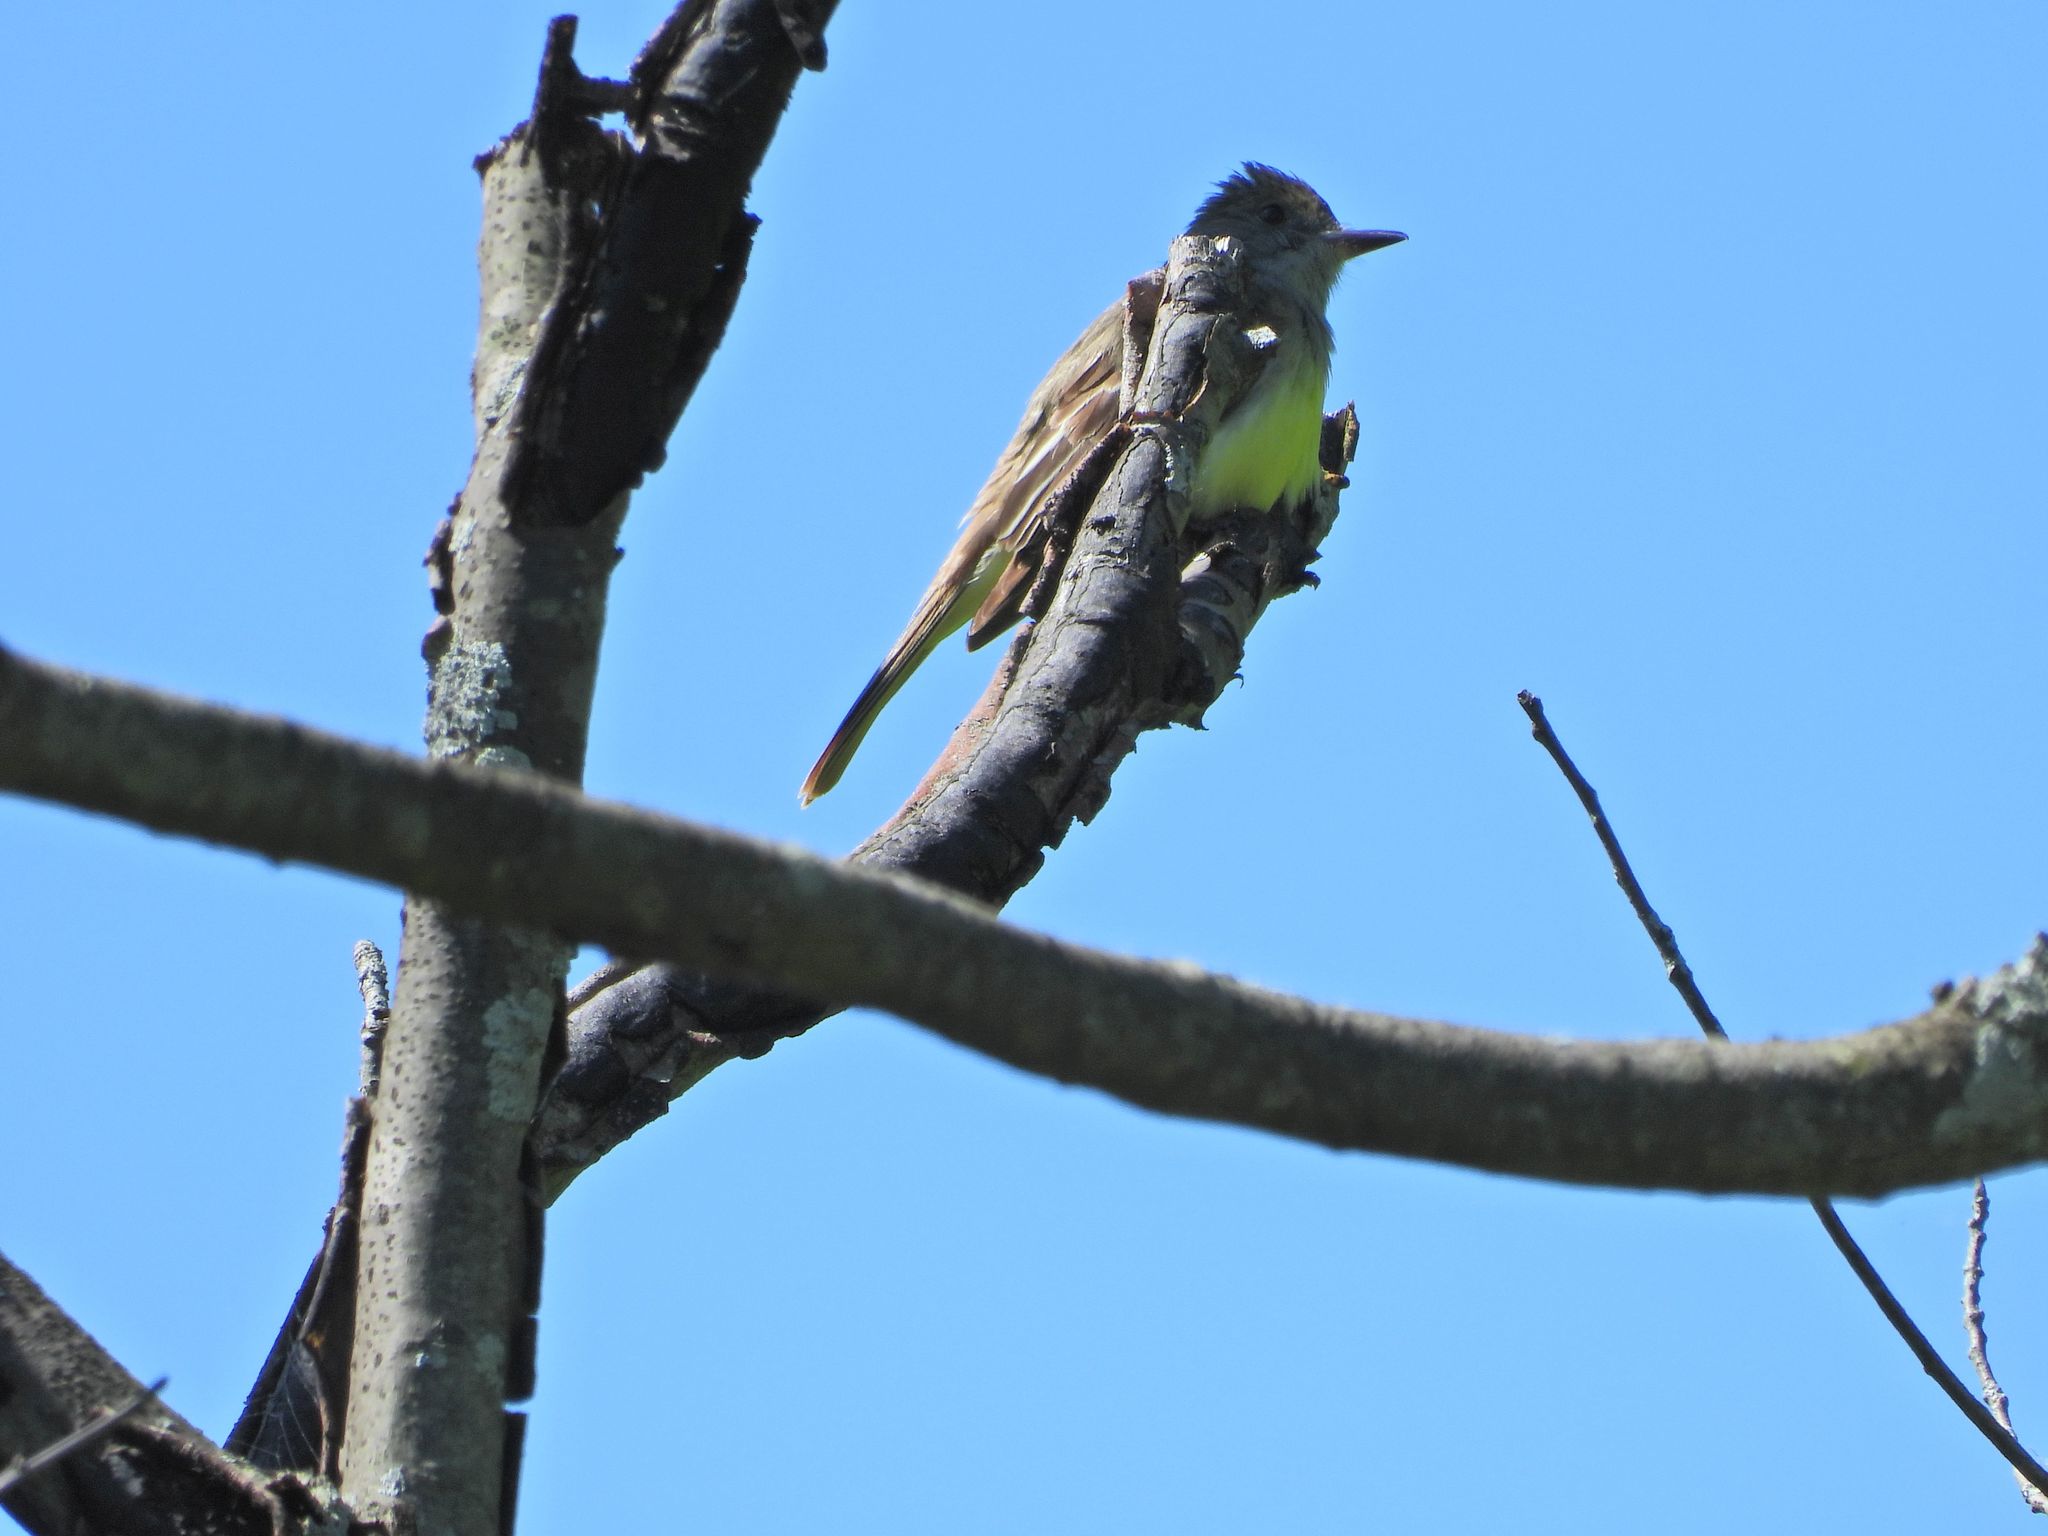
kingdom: Animalia
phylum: Chordata
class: Aves
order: Passeriformes
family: Tyrannidae
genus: Myiarchus
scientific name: Myiarchus crinitus
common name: Great crested flycatcher
